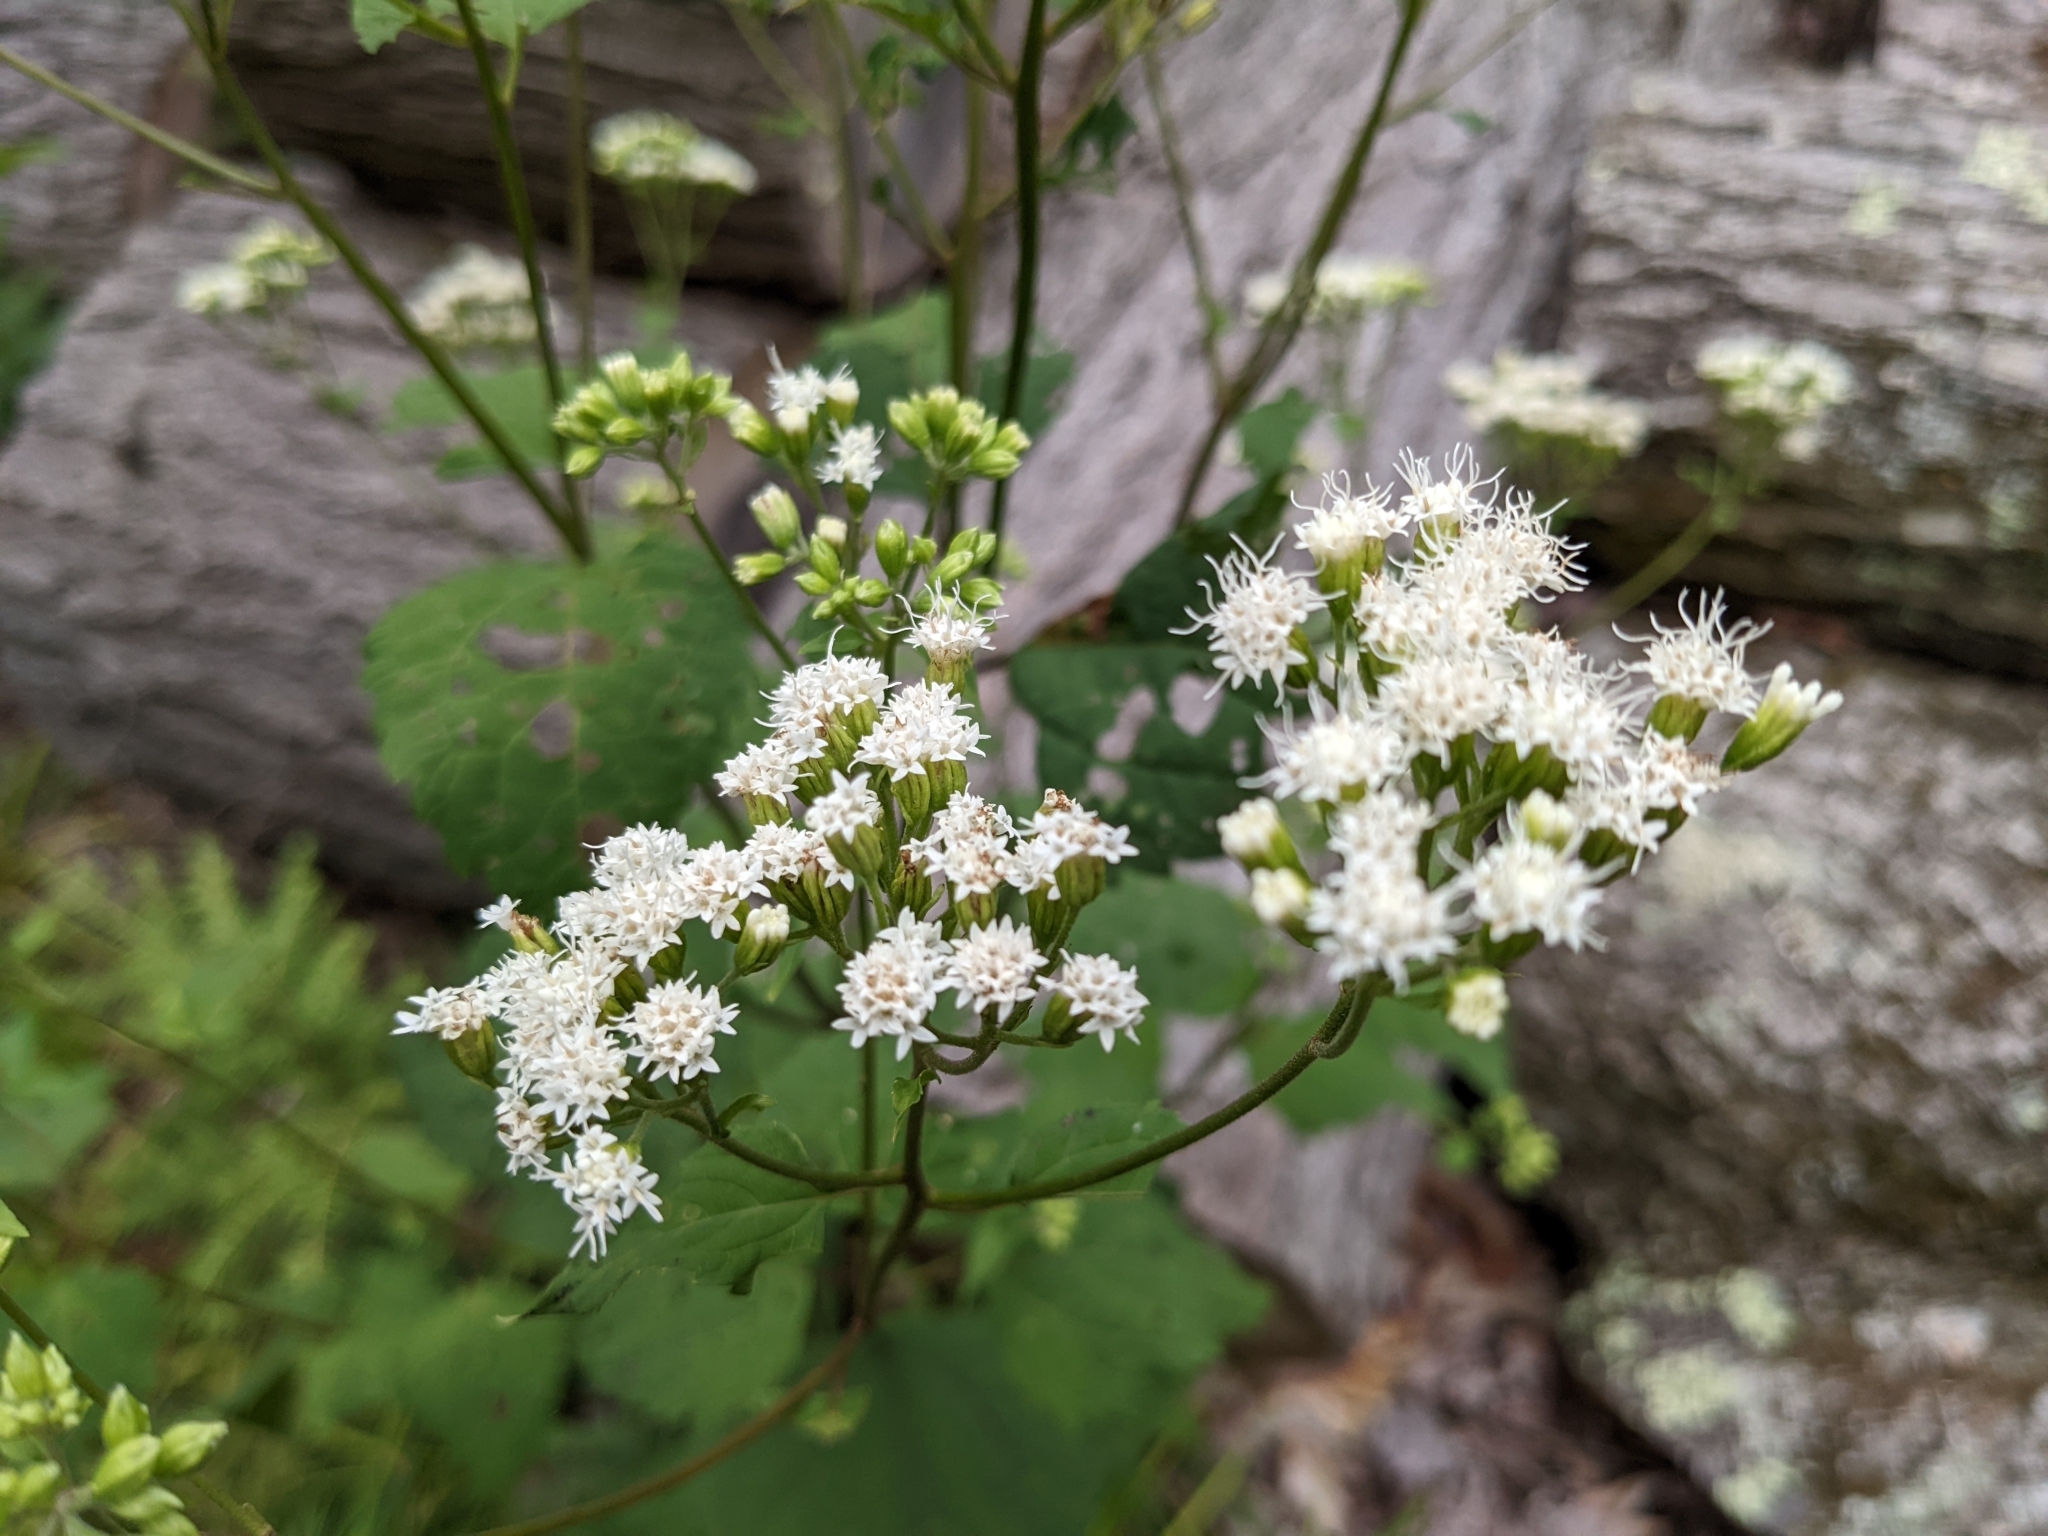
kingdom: Plantae
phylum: Tracheophyta
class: Magnoliopsida
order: Asterales
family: Asteraceae
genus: Ageratina
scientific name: Ageratina altissima
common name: White snakeroot
